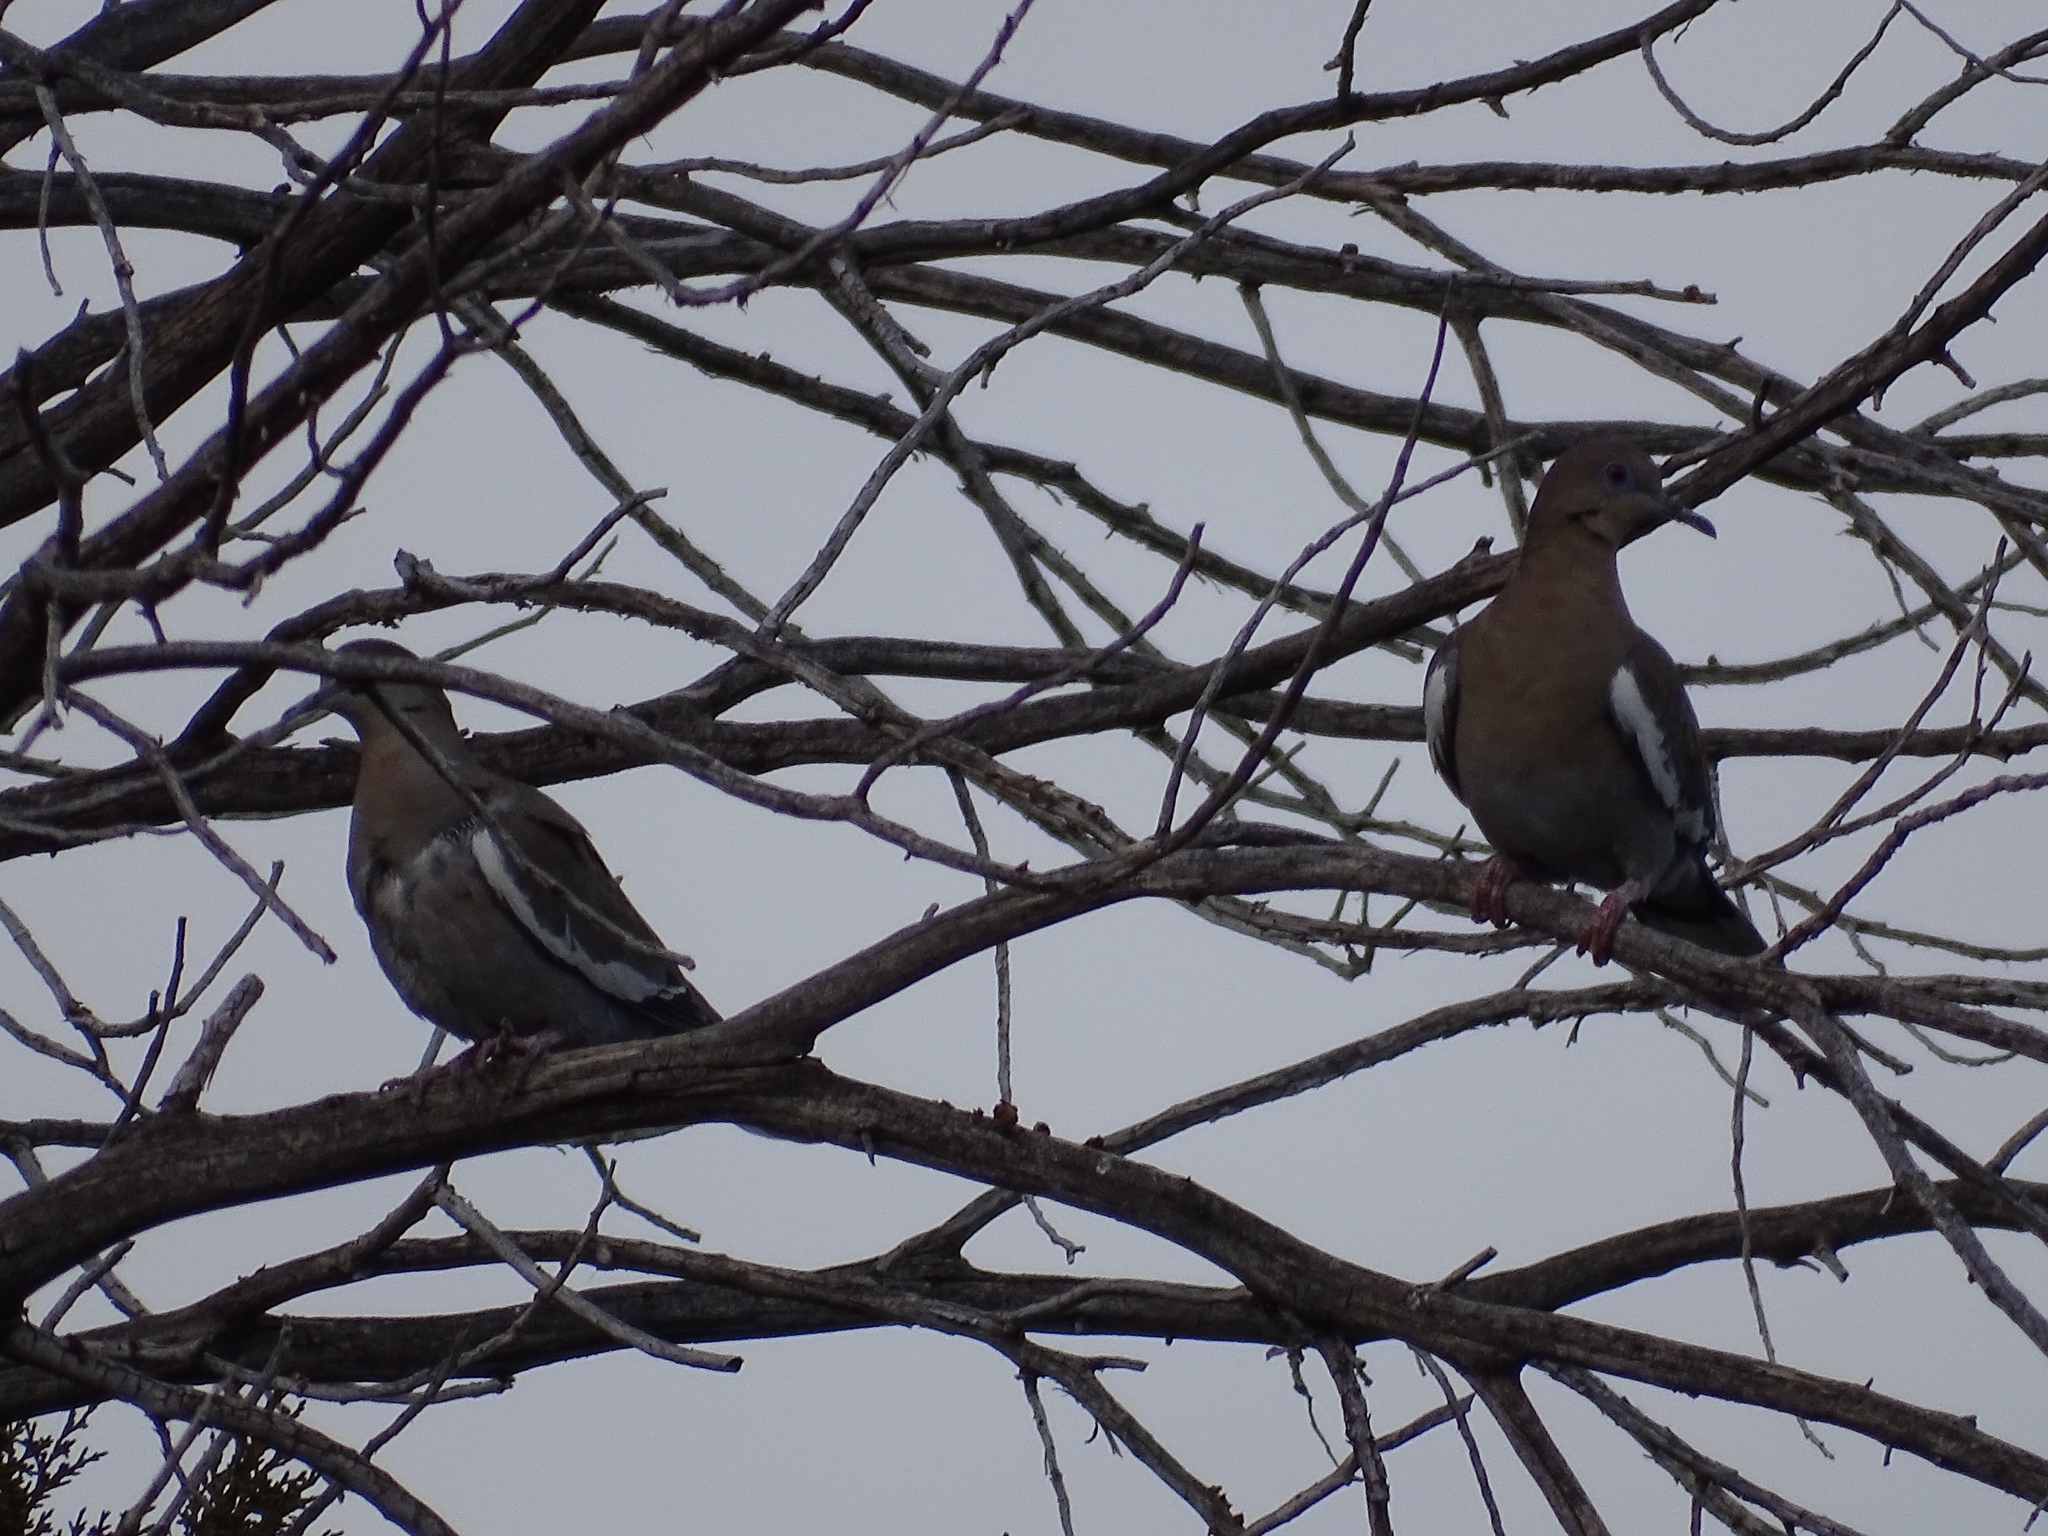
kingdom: Animalia
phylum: Chordata
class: Aves
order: Columbiformes
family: Columbidae
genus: Zenaida
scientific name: Zenaida asiatica
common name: White-winged dove
